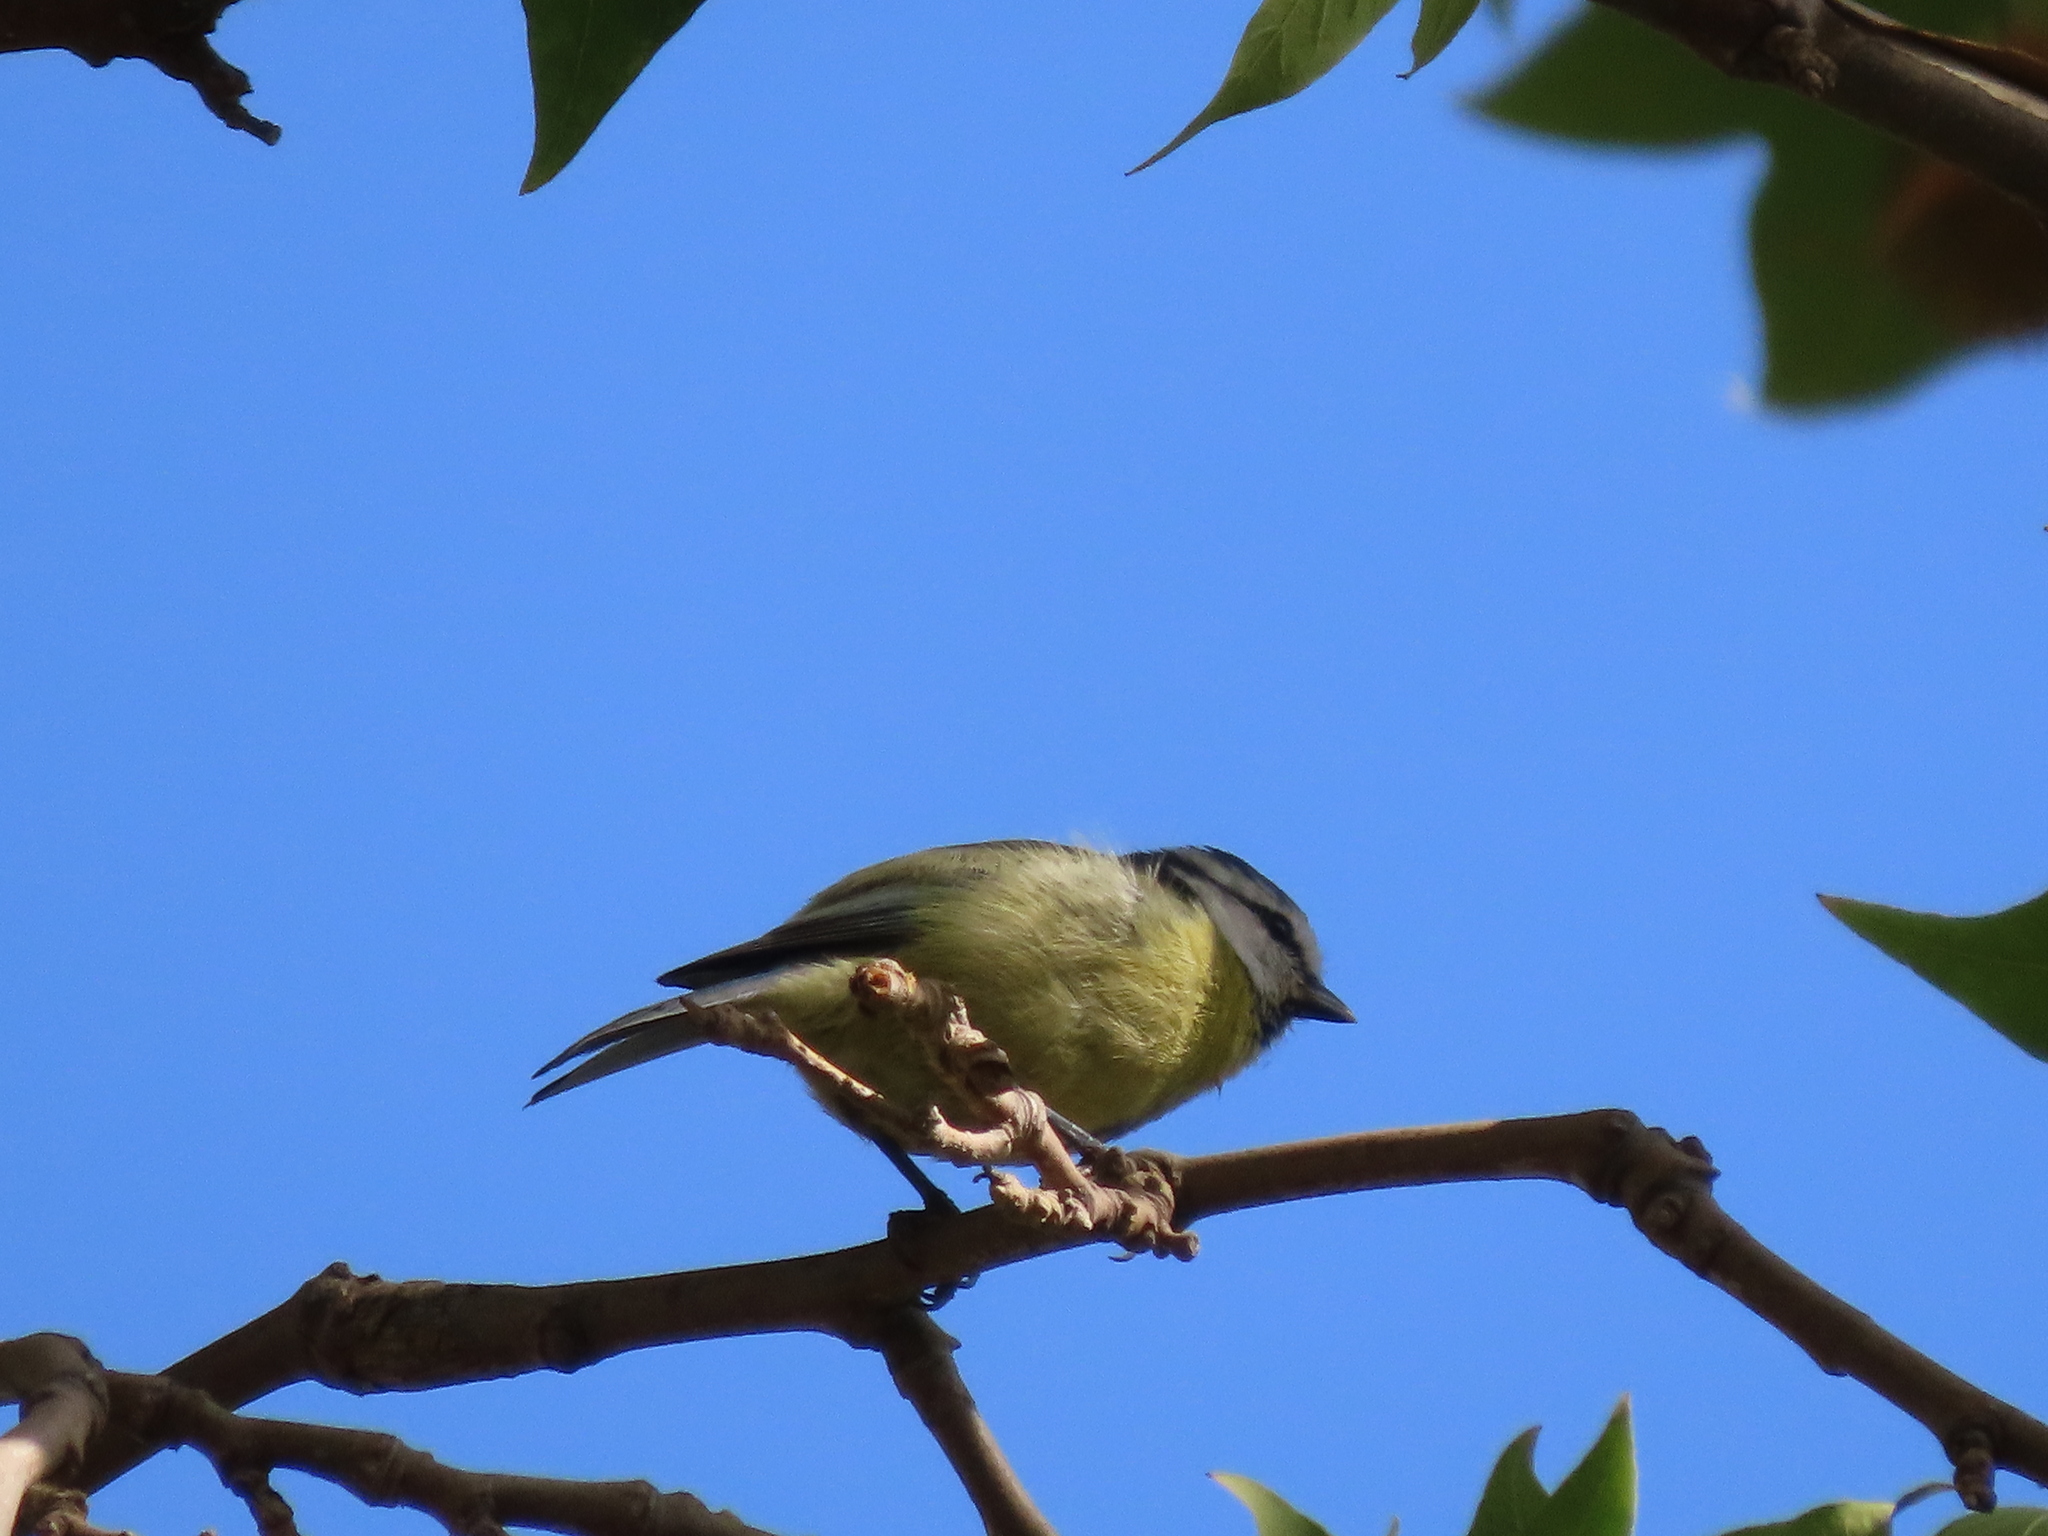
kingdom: Animalia
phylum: Chordata
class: Aves
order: Passeriformes
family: Paridae
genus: Cyanistes
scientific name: Cyanistes caeruleus
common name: Eurasian blue tit
